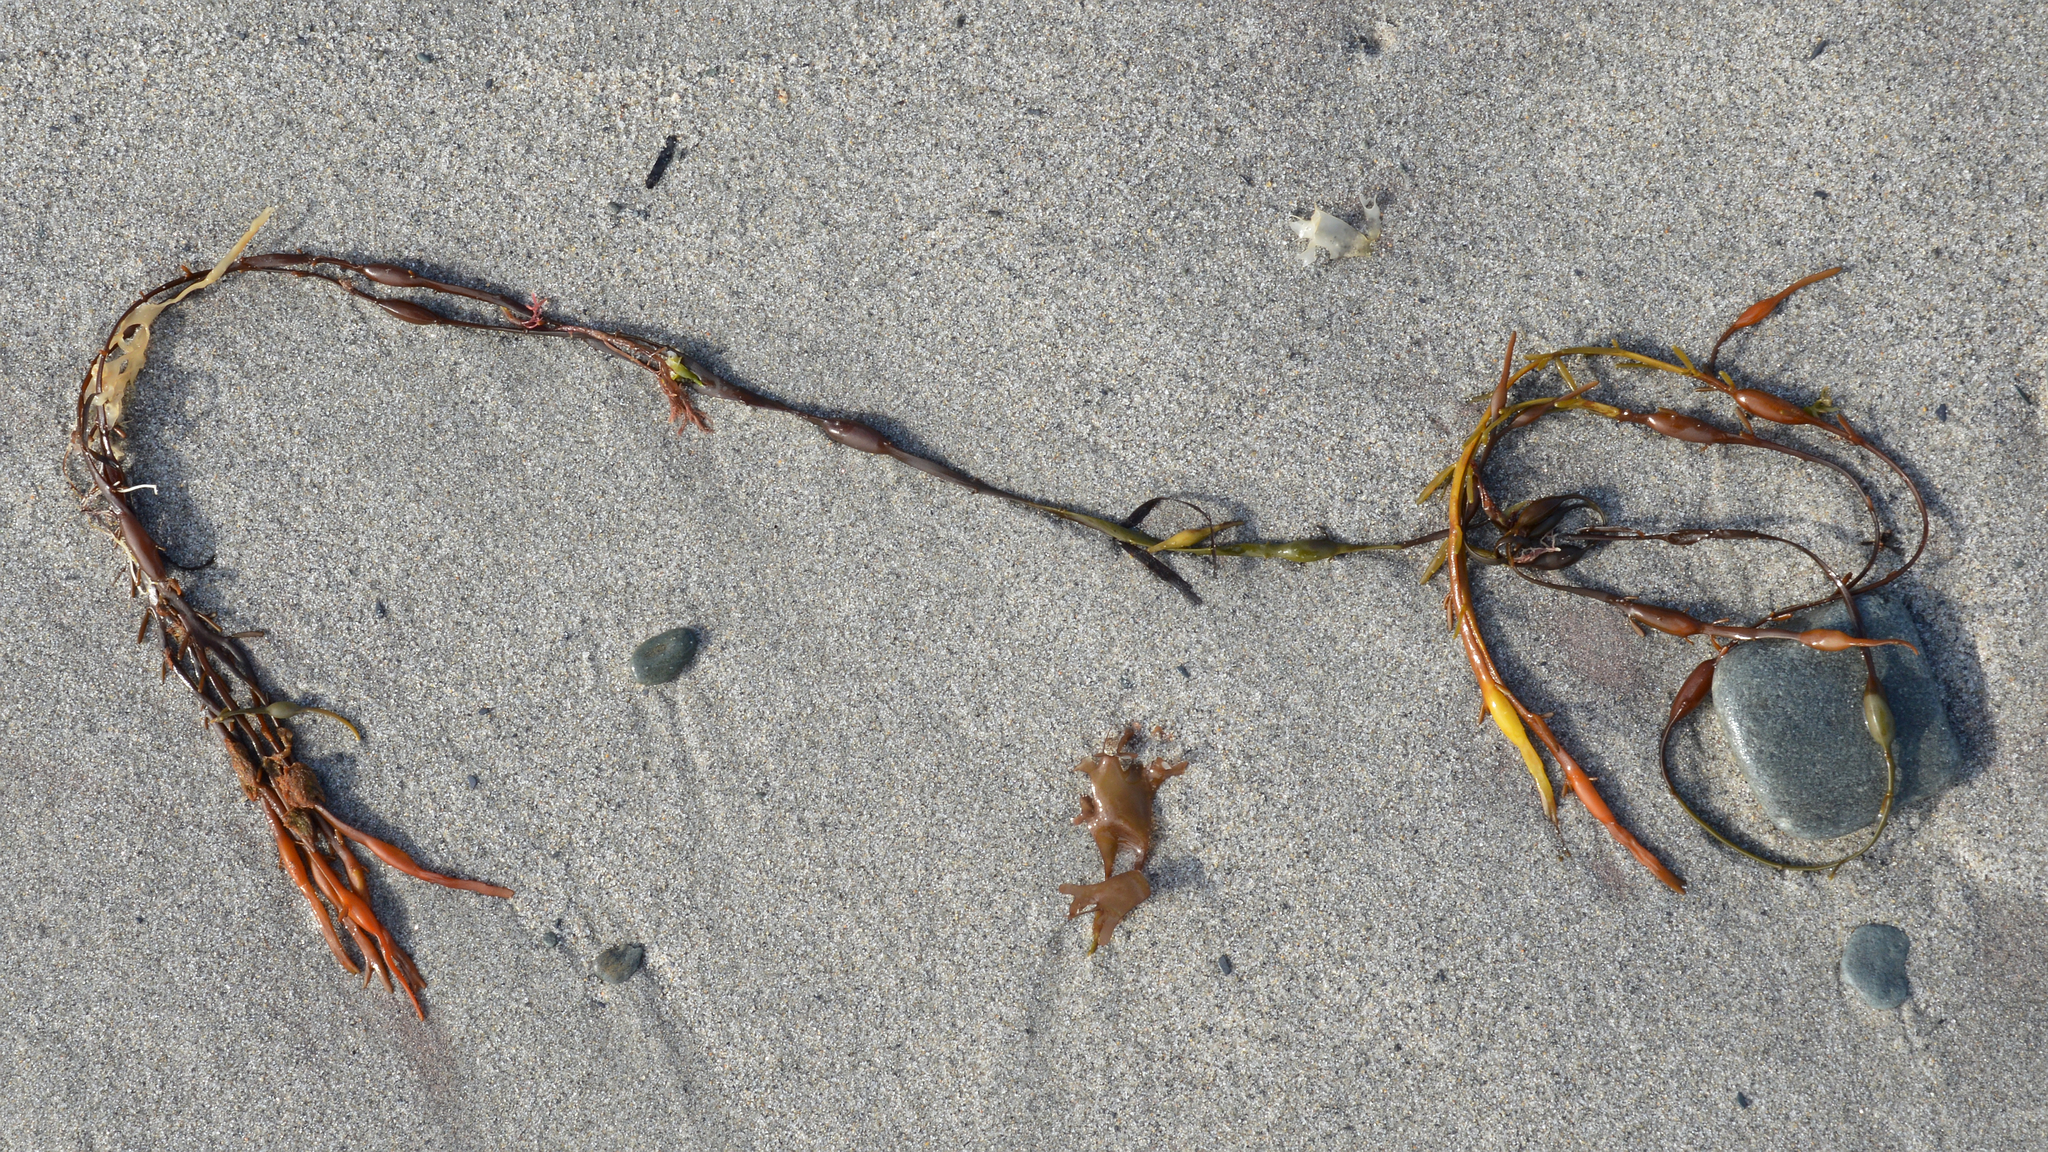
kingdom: Chromista
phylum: Ochrophyta
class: Phaeophyceae
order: Fucales
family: Fucaceae
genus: Ascophyllum
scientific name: Ascophyllum nodosum
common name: Knotted wrack
